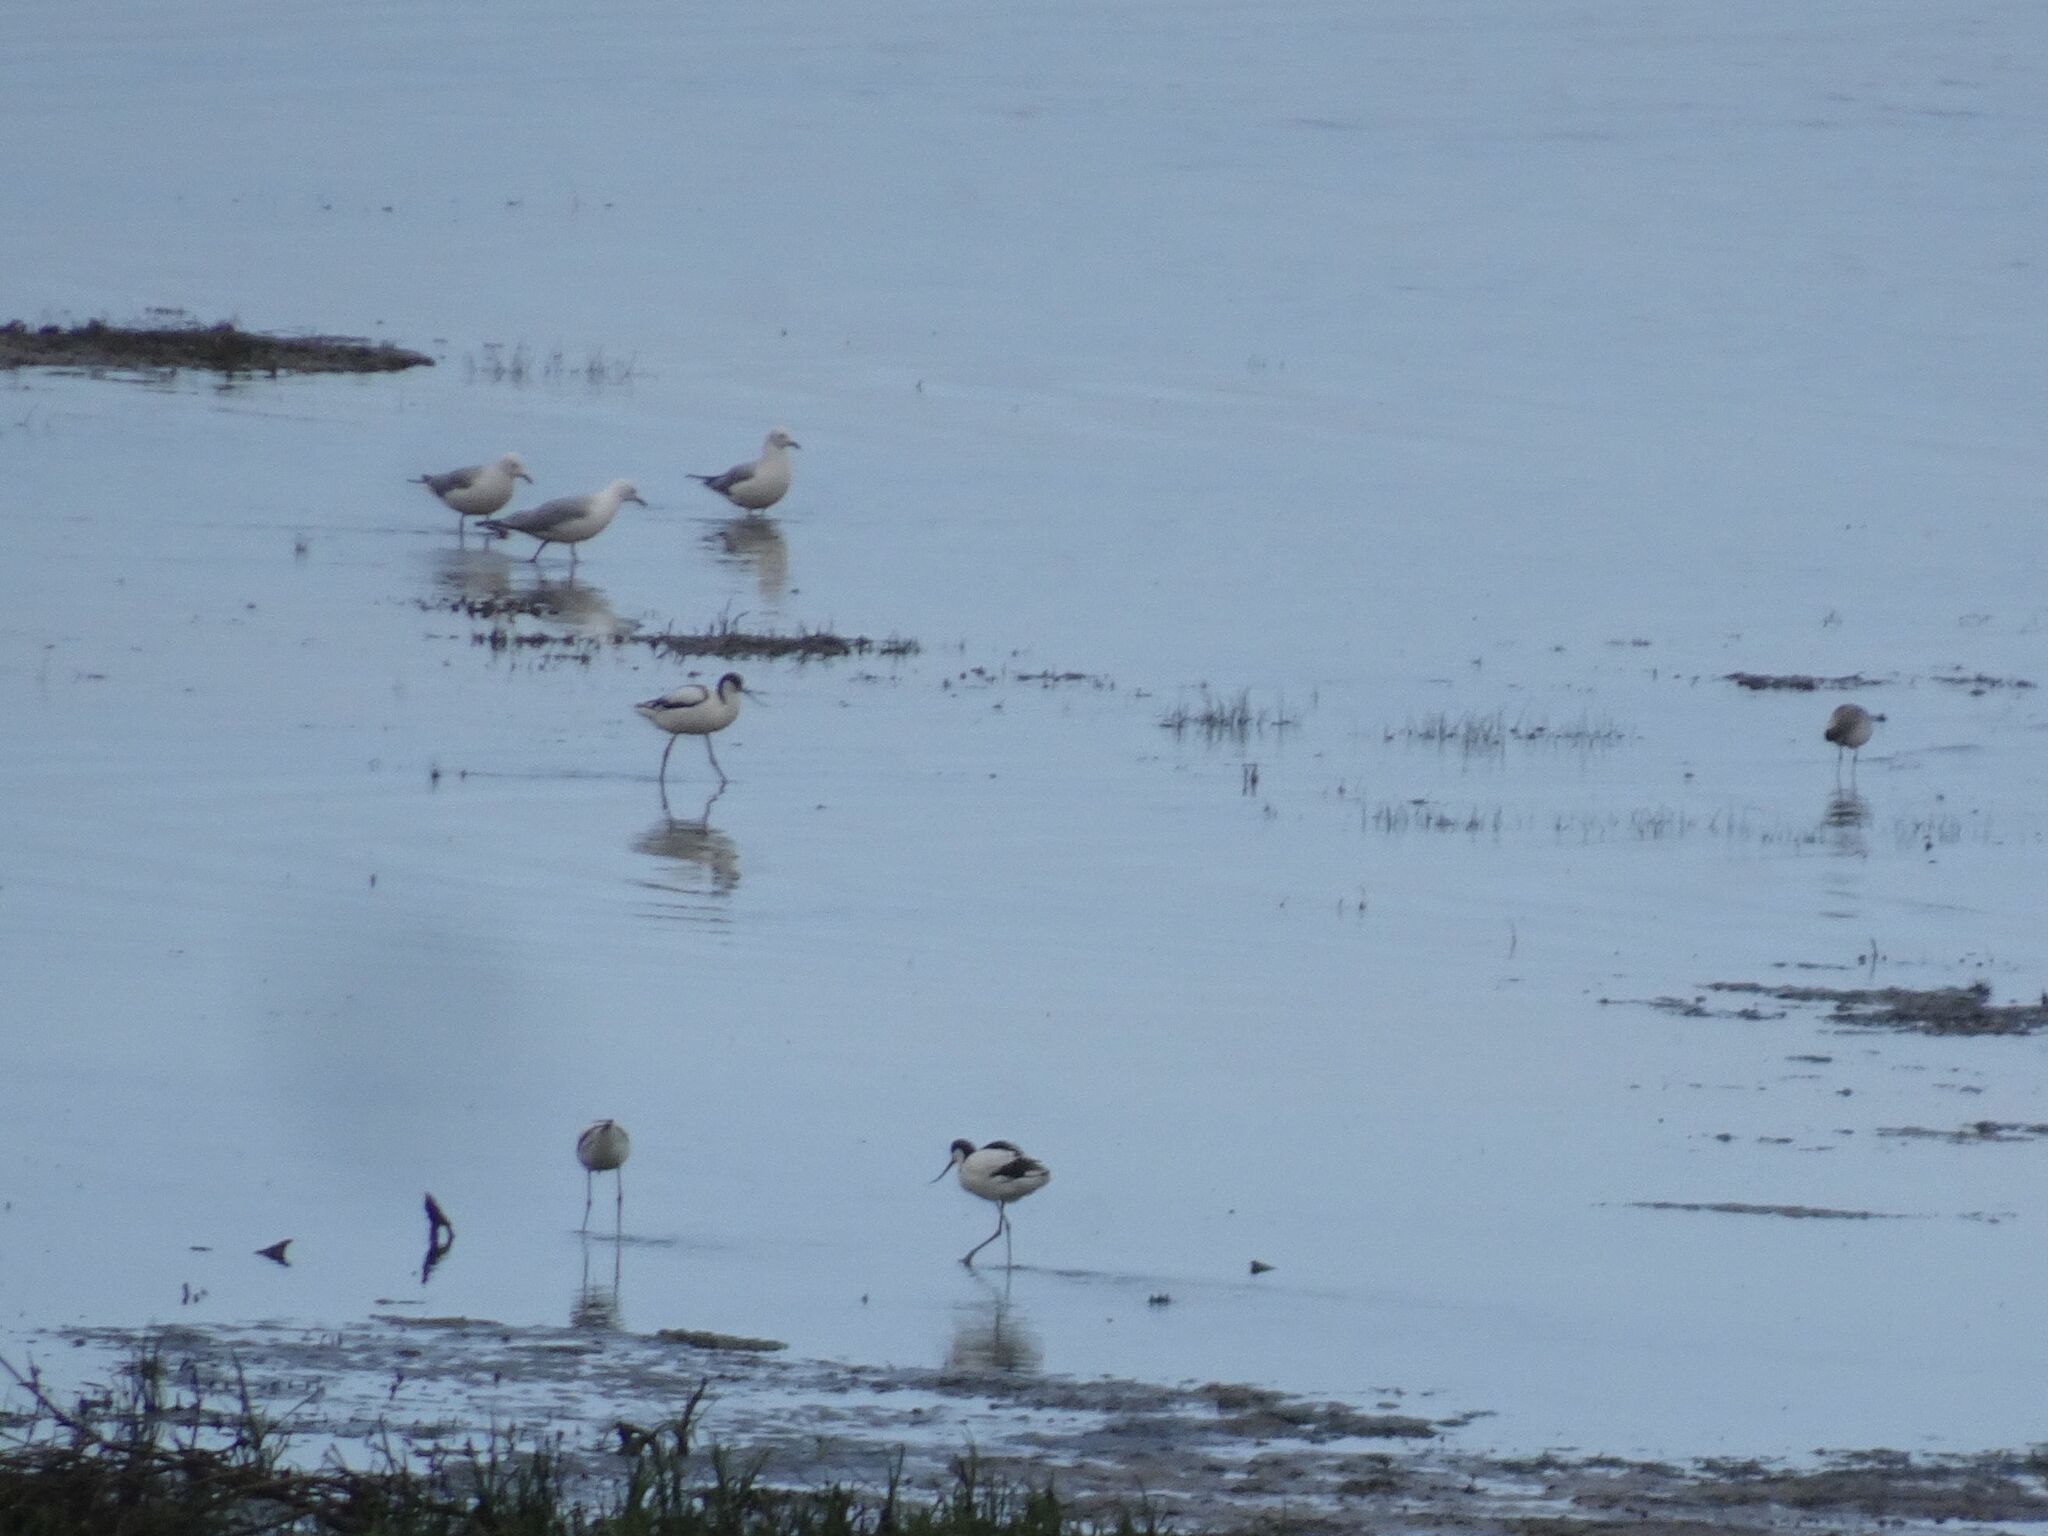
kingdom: Animalia
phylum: Chordata
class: Aves
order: Charadriiformes
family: Laridae
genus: Chroicocephalus
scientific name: Chroicocephalus hartlaubii
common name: Hartlaub's gull
